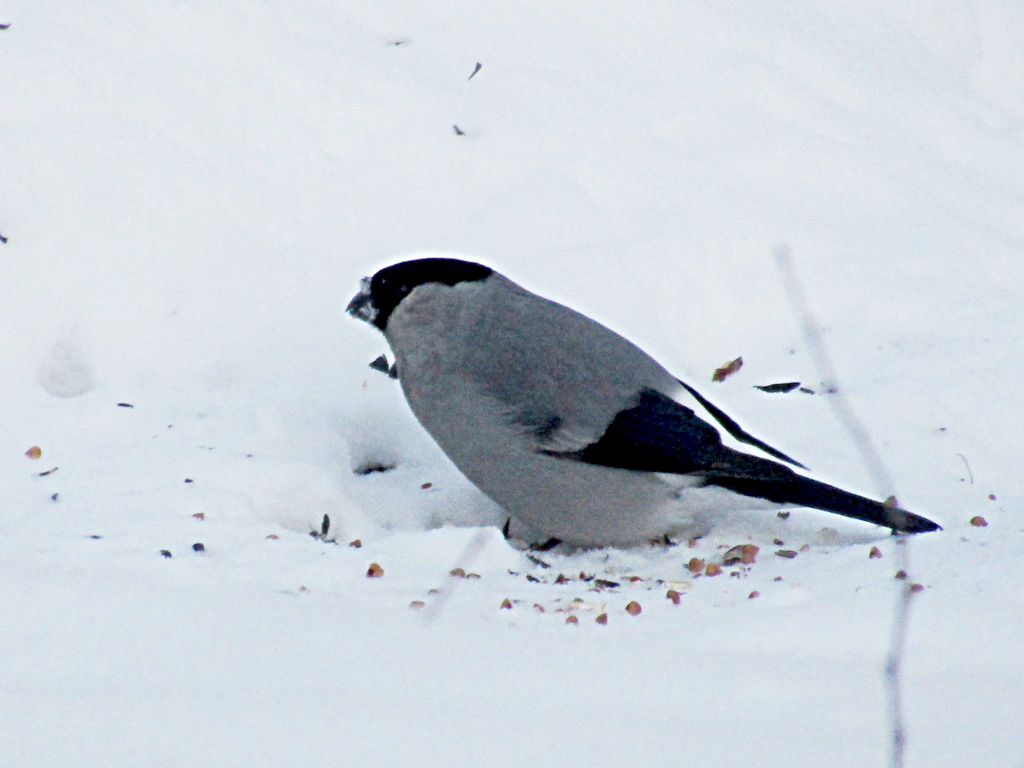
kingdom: Animalia
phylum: Chordata
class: Aves
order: Passeriformes
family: Fringillidae
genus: Pyrrhula
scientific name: Pyrrhula pyrrhula
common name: Eurasian bullfinch
